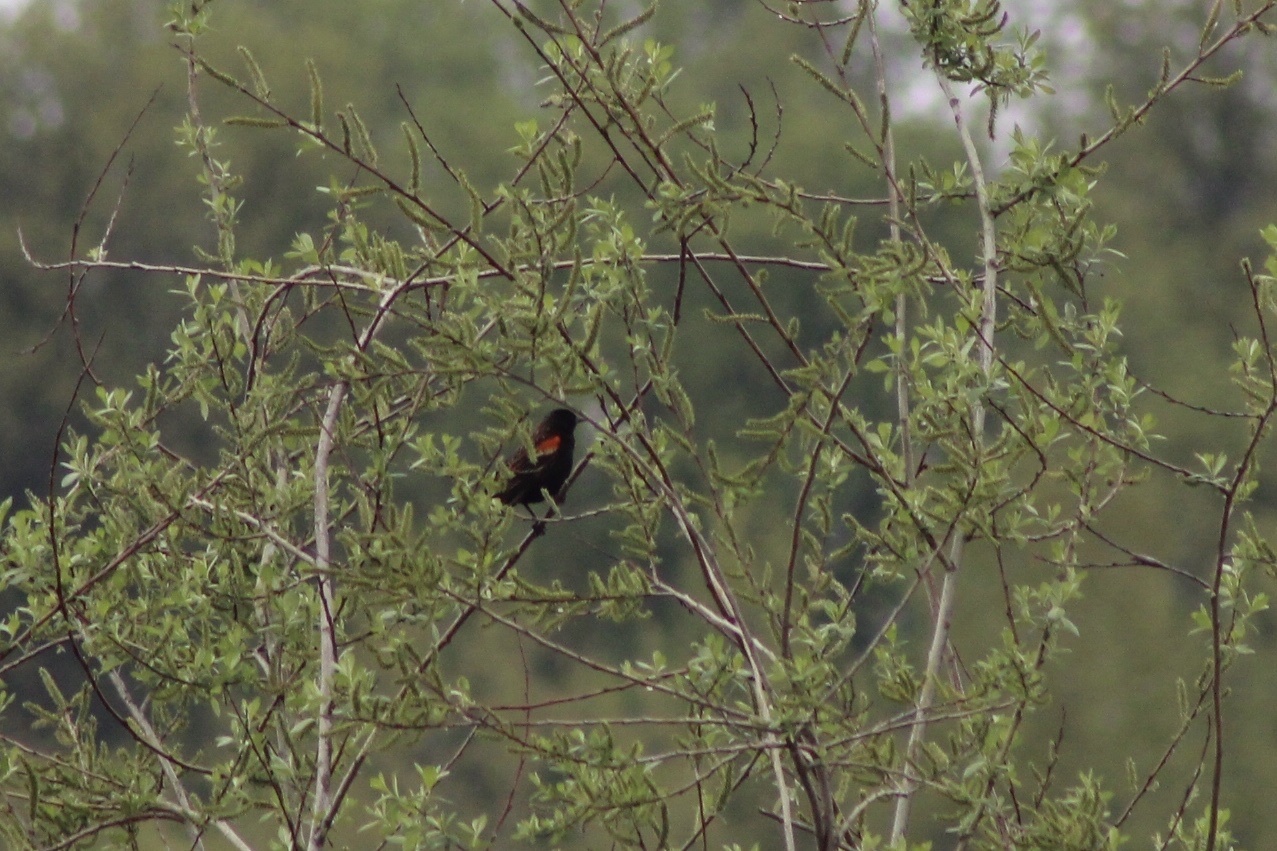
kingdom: Animalia
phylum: Chordata
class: Aves
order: Passeriformes
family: Icteridae
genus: Agelaius
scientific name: Agelaius phoeniceus
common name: Red-winged blackbird
